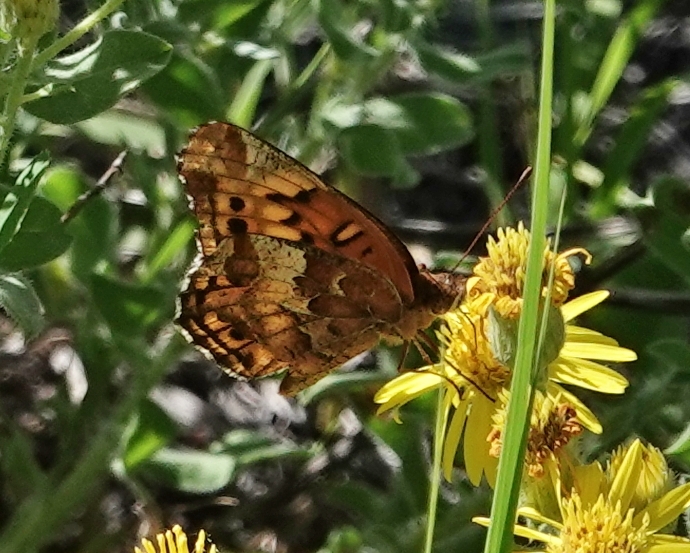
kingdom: Animalia
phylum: Arthropoda
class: Insecta
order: Lepidoptera
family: Nymphalidae
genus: Euptoieta
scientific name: Euptoieta claudia
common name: Variegated fritillary
